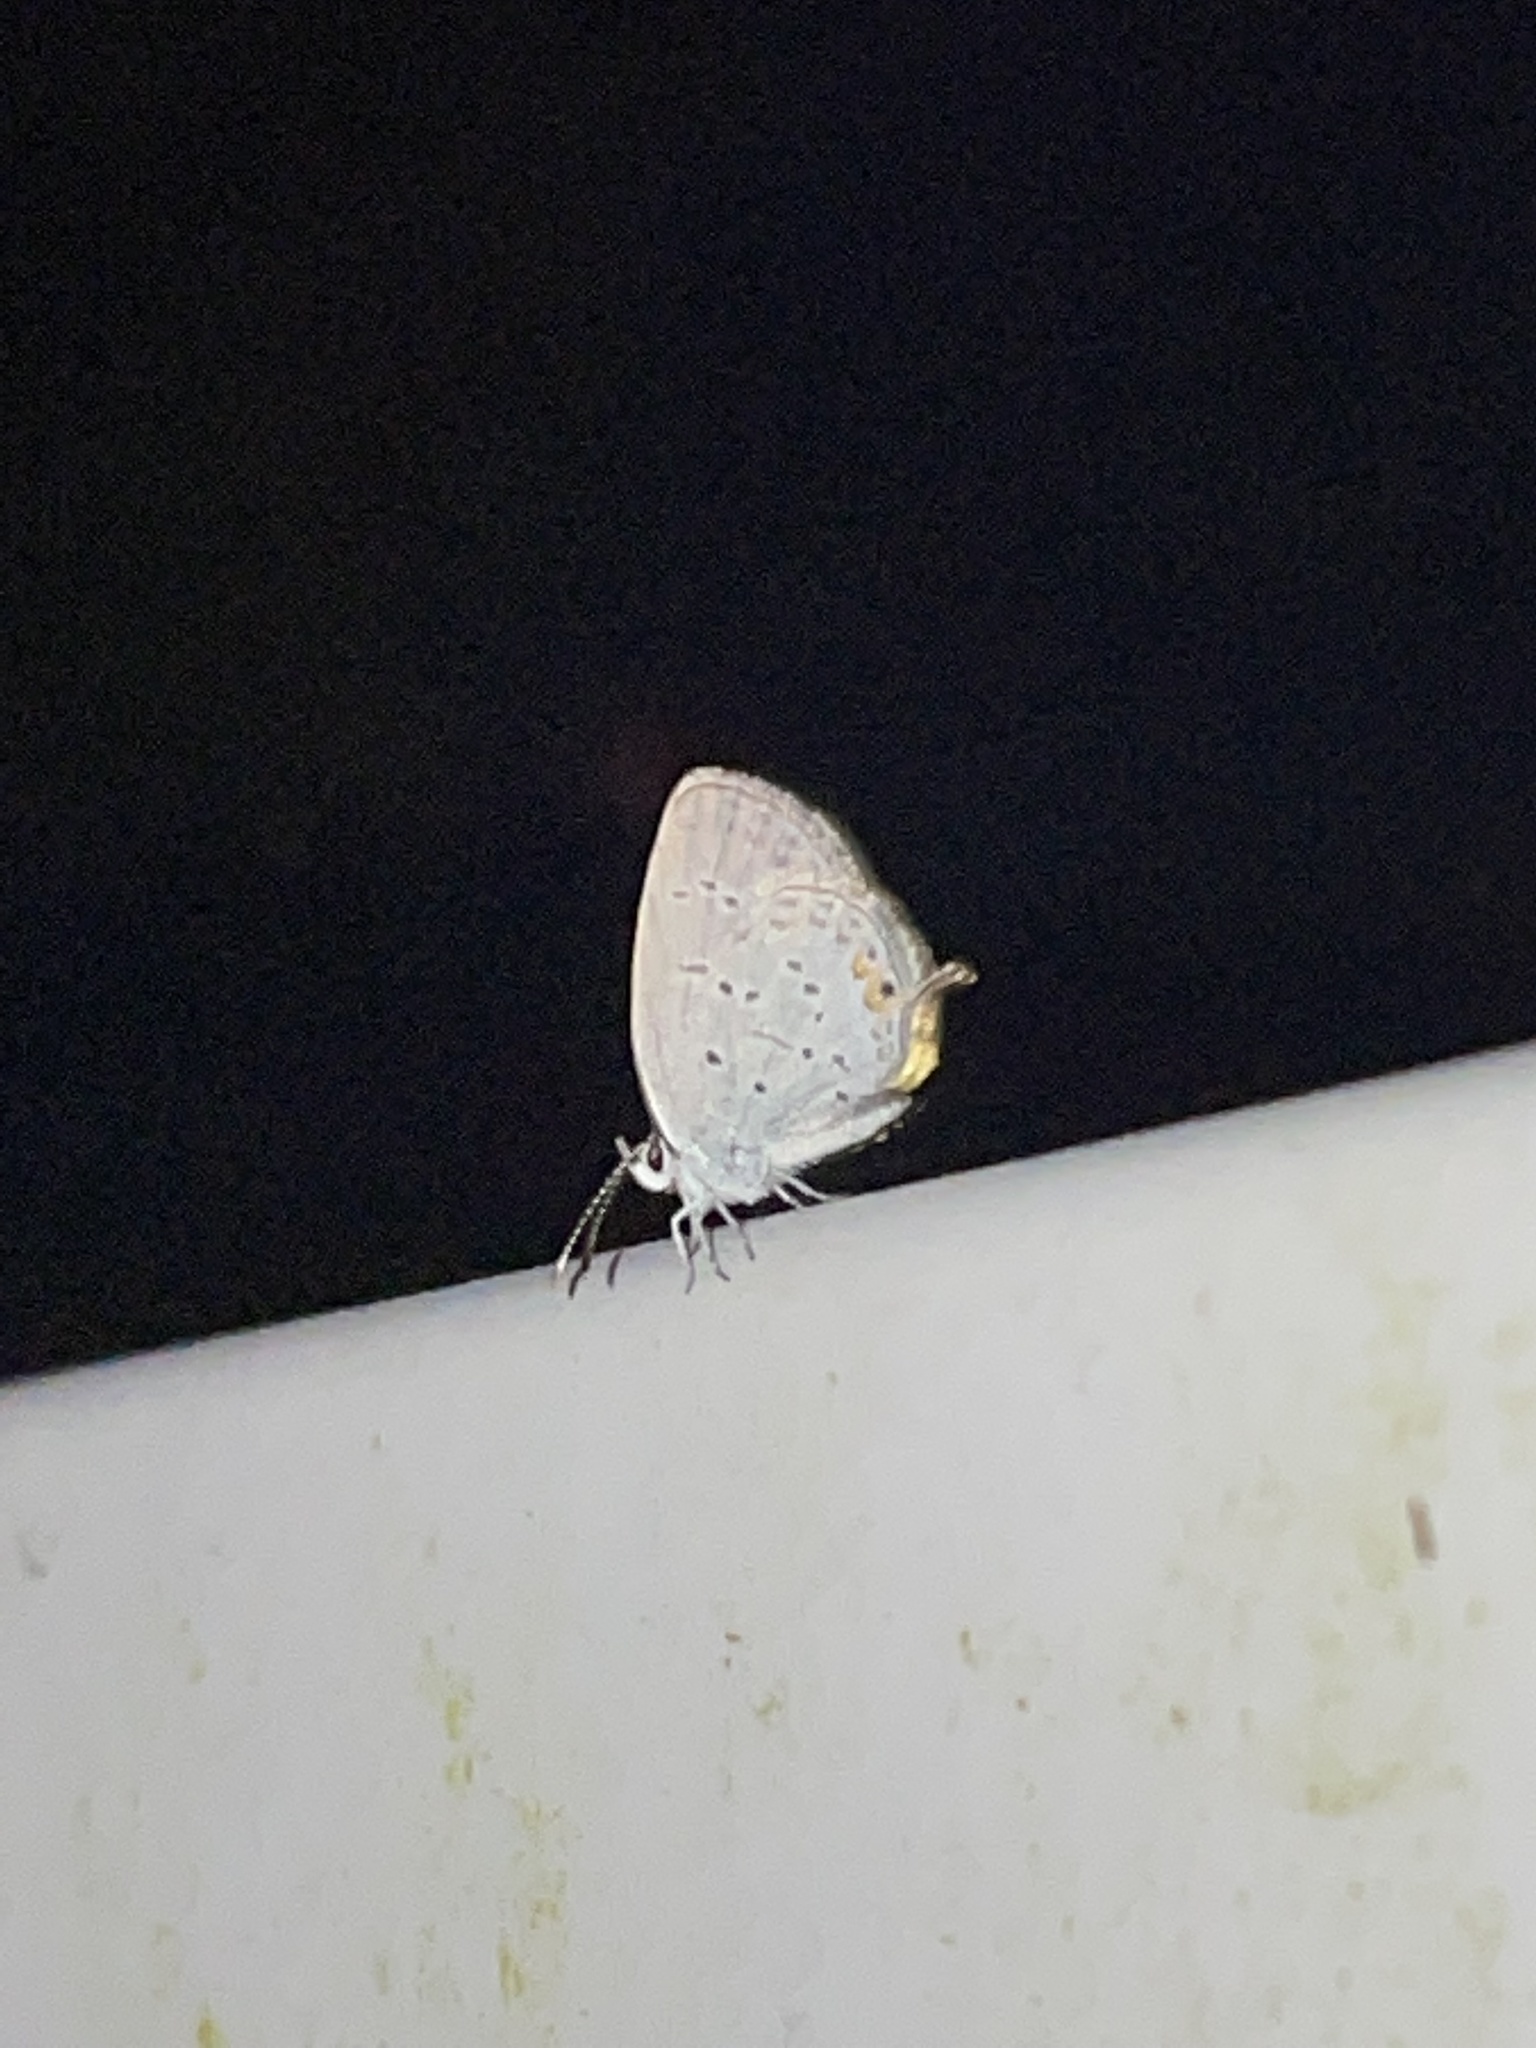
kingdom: Animalia
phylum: Arthropoda
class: Insecta
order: Lepidoptera
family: Lycaenidae
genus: Elkalyce
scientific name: Elkalyce comyntas
